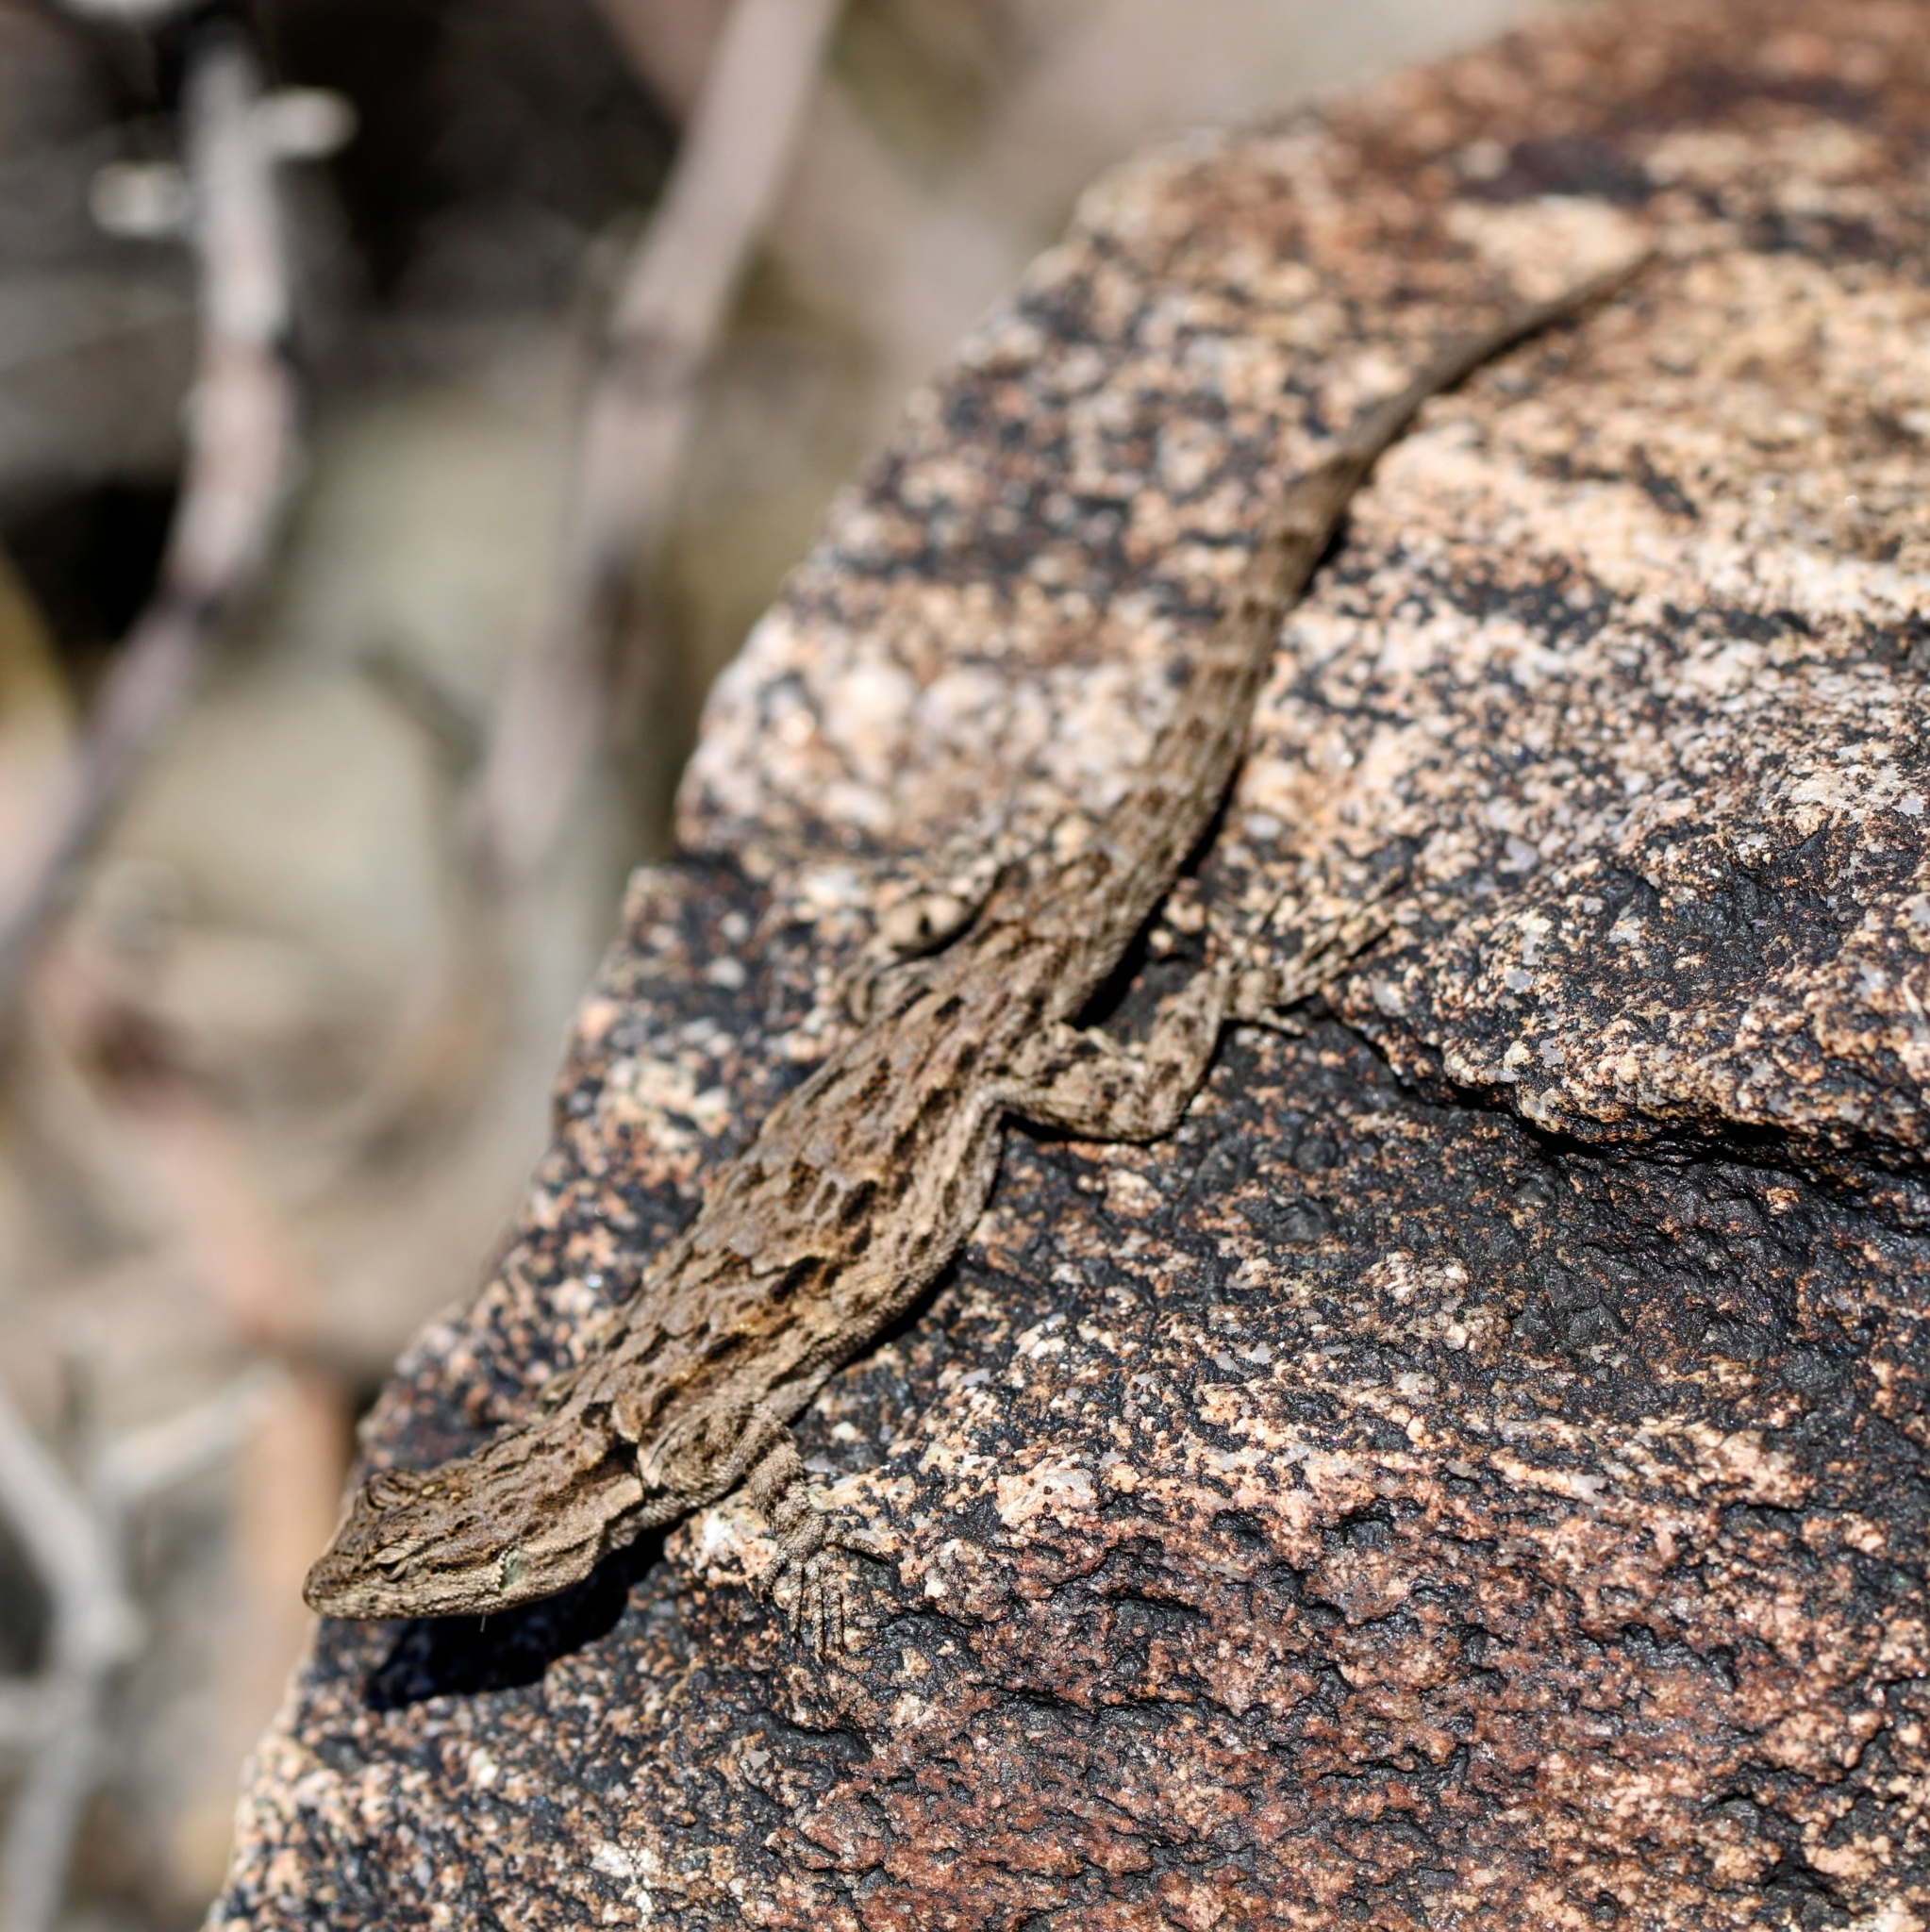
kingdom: Animalia
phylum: Chordata
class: Squamata
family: Phrynosomatidae
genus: Urosaurus
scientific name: Urosaurus ornatus
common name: Ornate tree lizard
